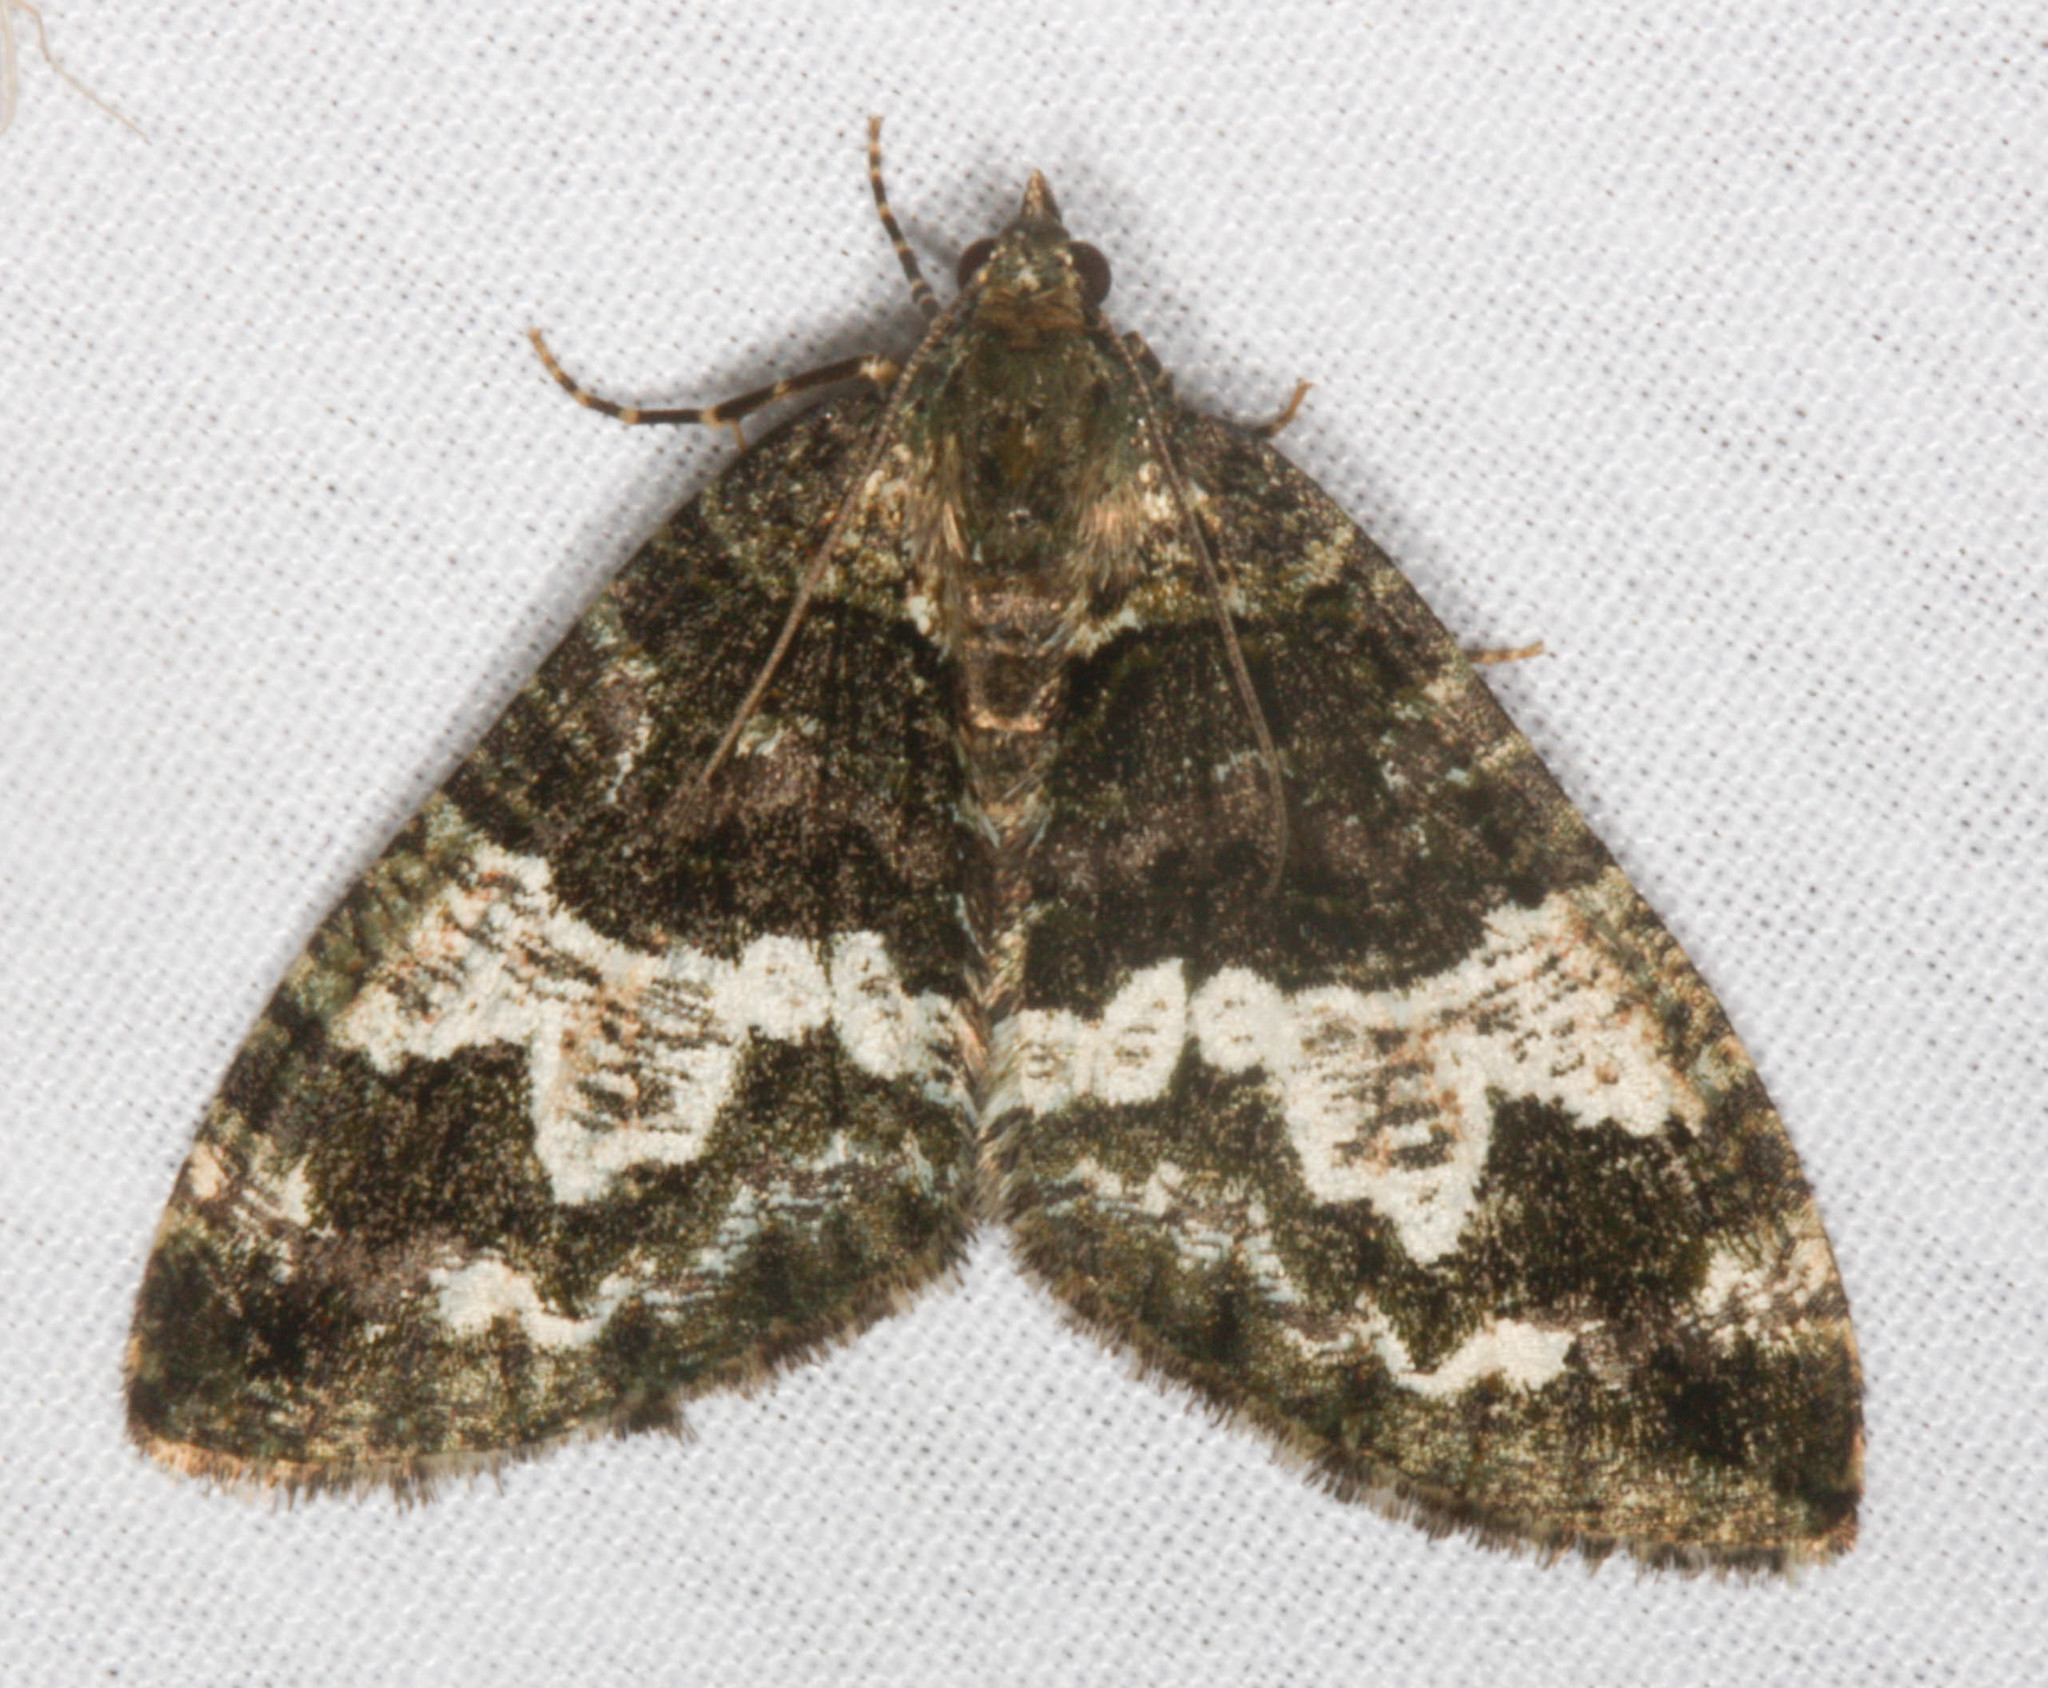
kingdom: Animalia
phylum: Arthropoda
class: Insecta
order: Lepidoptera
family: Geometridae
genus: Hydriomena
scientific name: Hydriomena albifasciata
